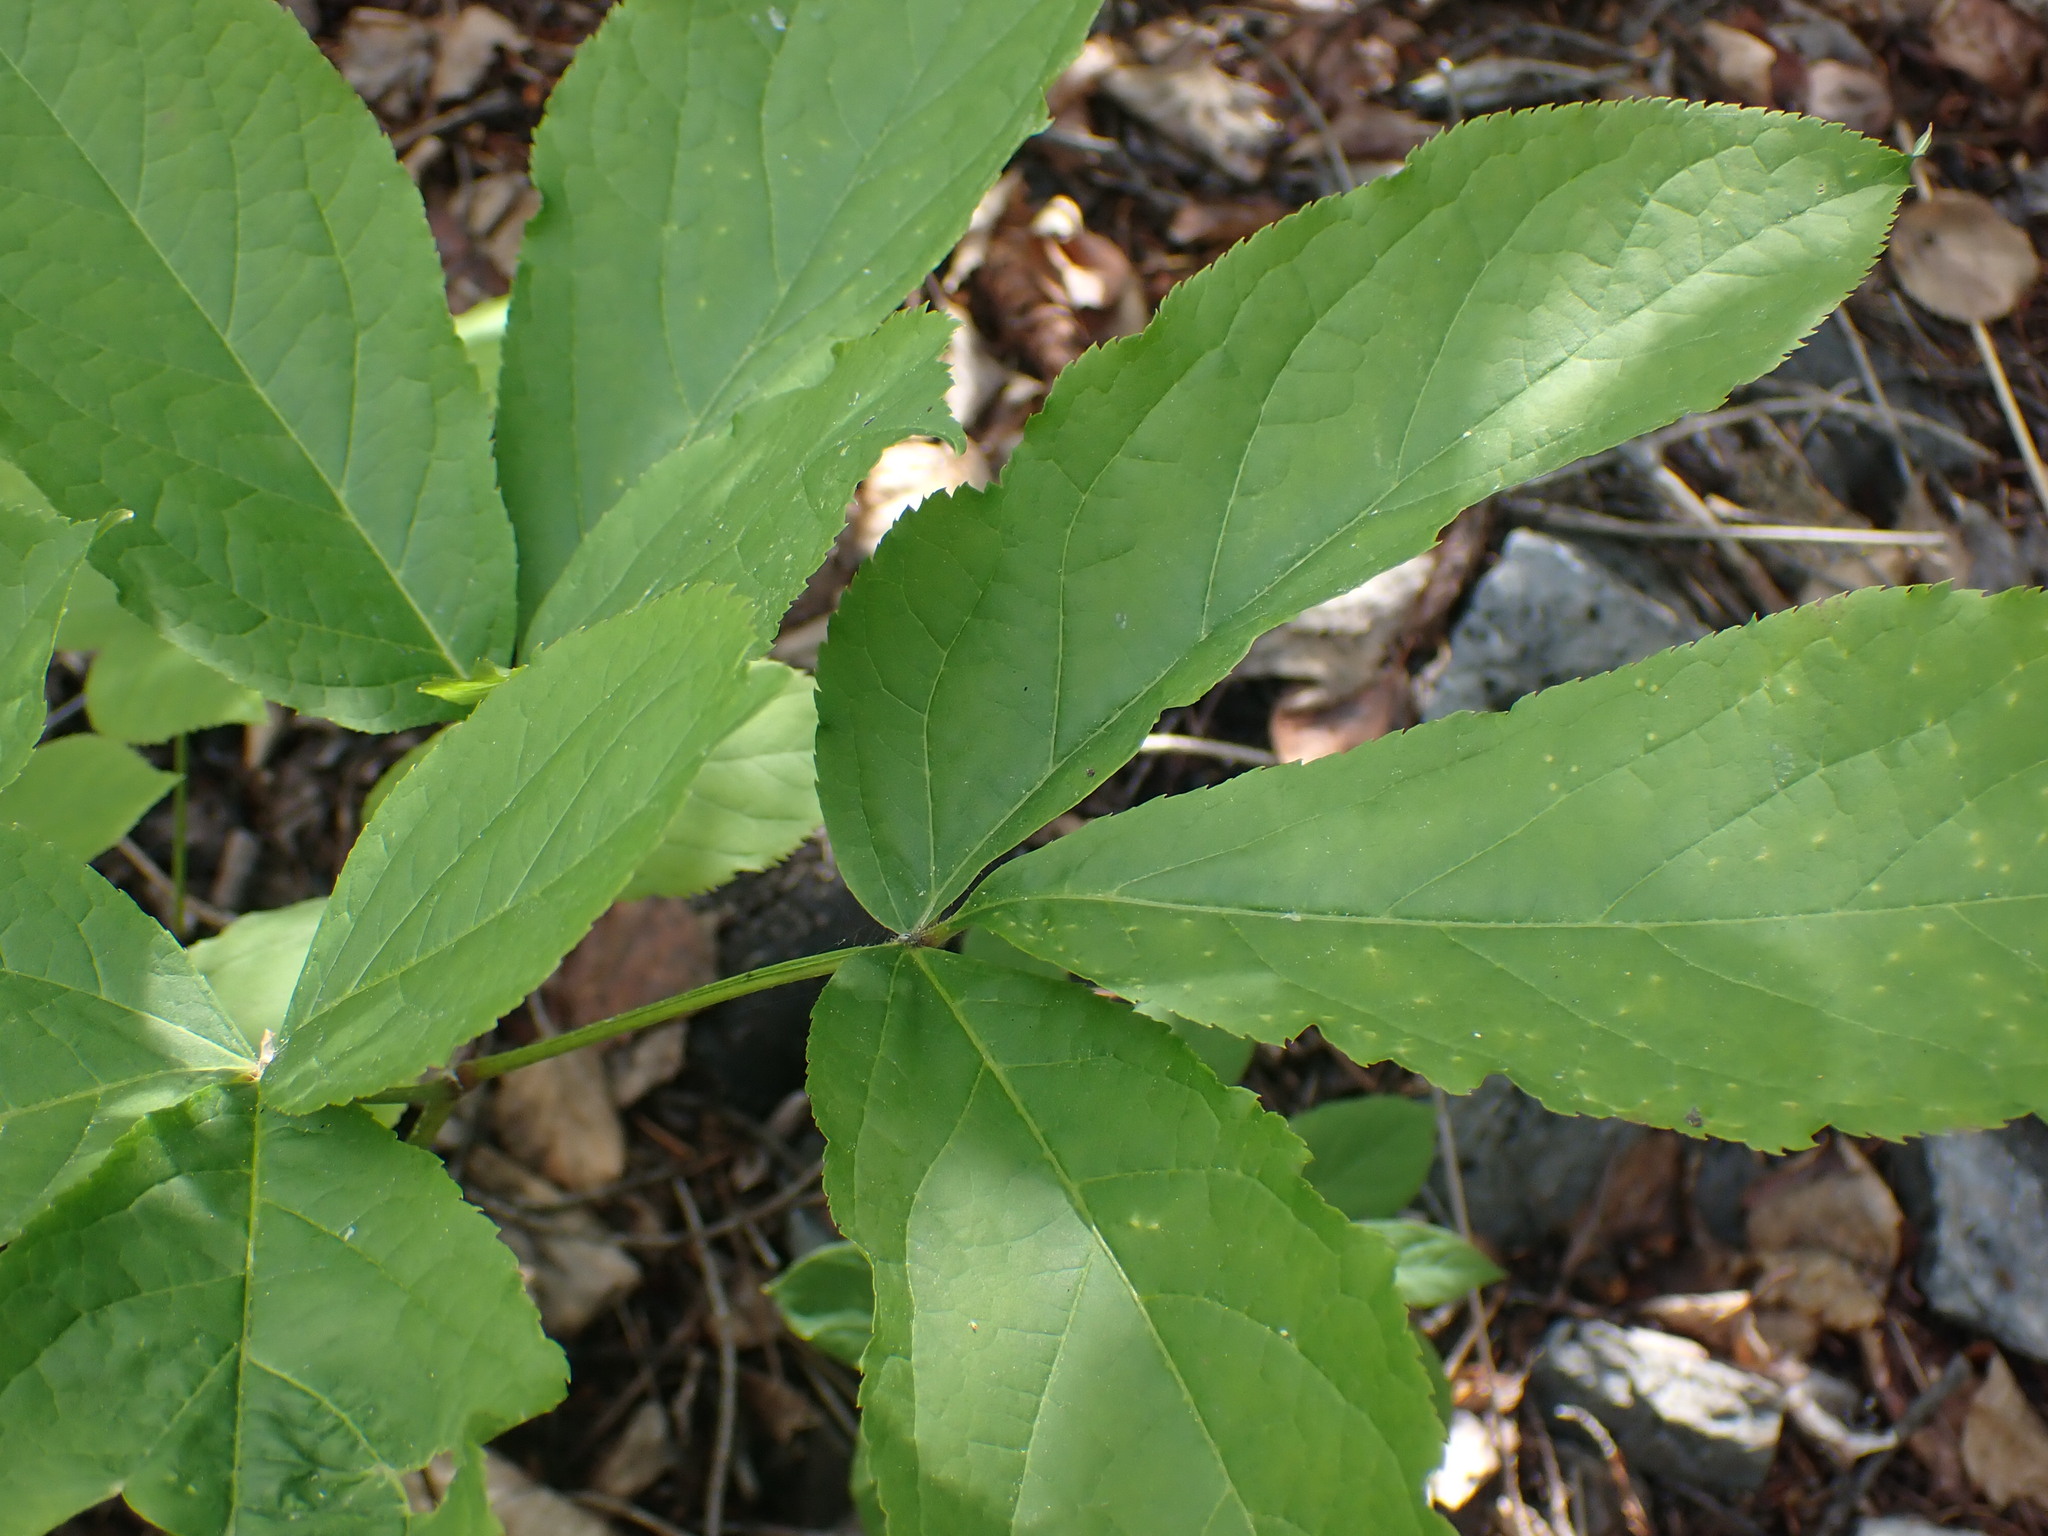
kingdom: Plantae
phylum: Tracheophyta
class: Magnoliopsida
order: Apiales
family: Araliaceae
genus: Aralia
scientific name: Aralia nudicaulis
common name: Wild sarsaparilla
